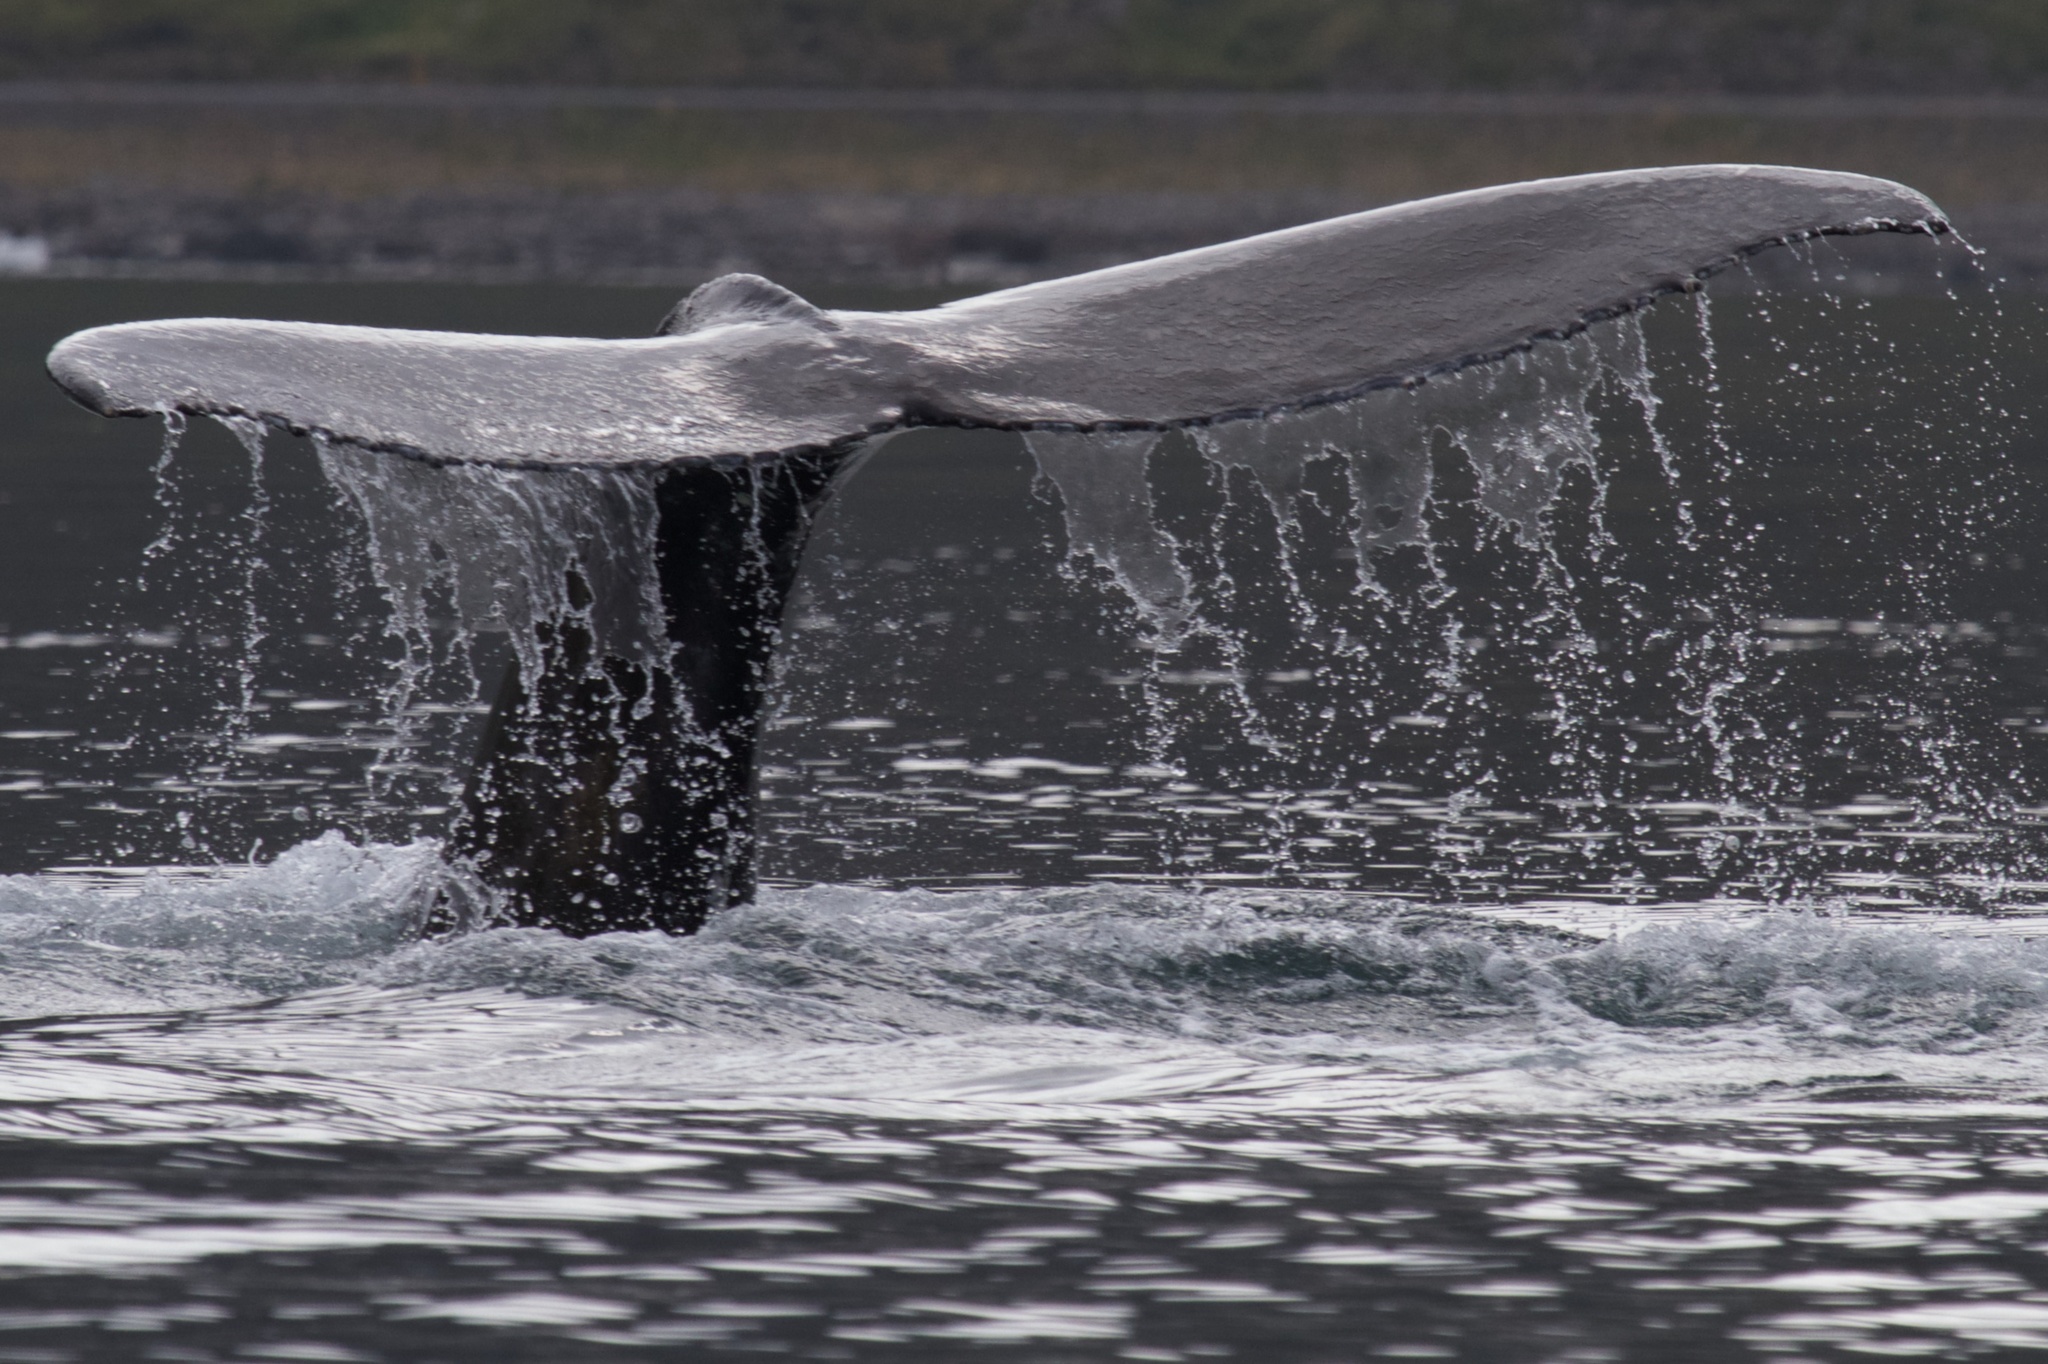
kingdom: Animalia
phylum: Chordata
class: Mammalia
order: Cetacea
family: Balaenopteridae
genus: Megaptera
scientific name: Megaptera novaeangliae
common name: Humpback whale
